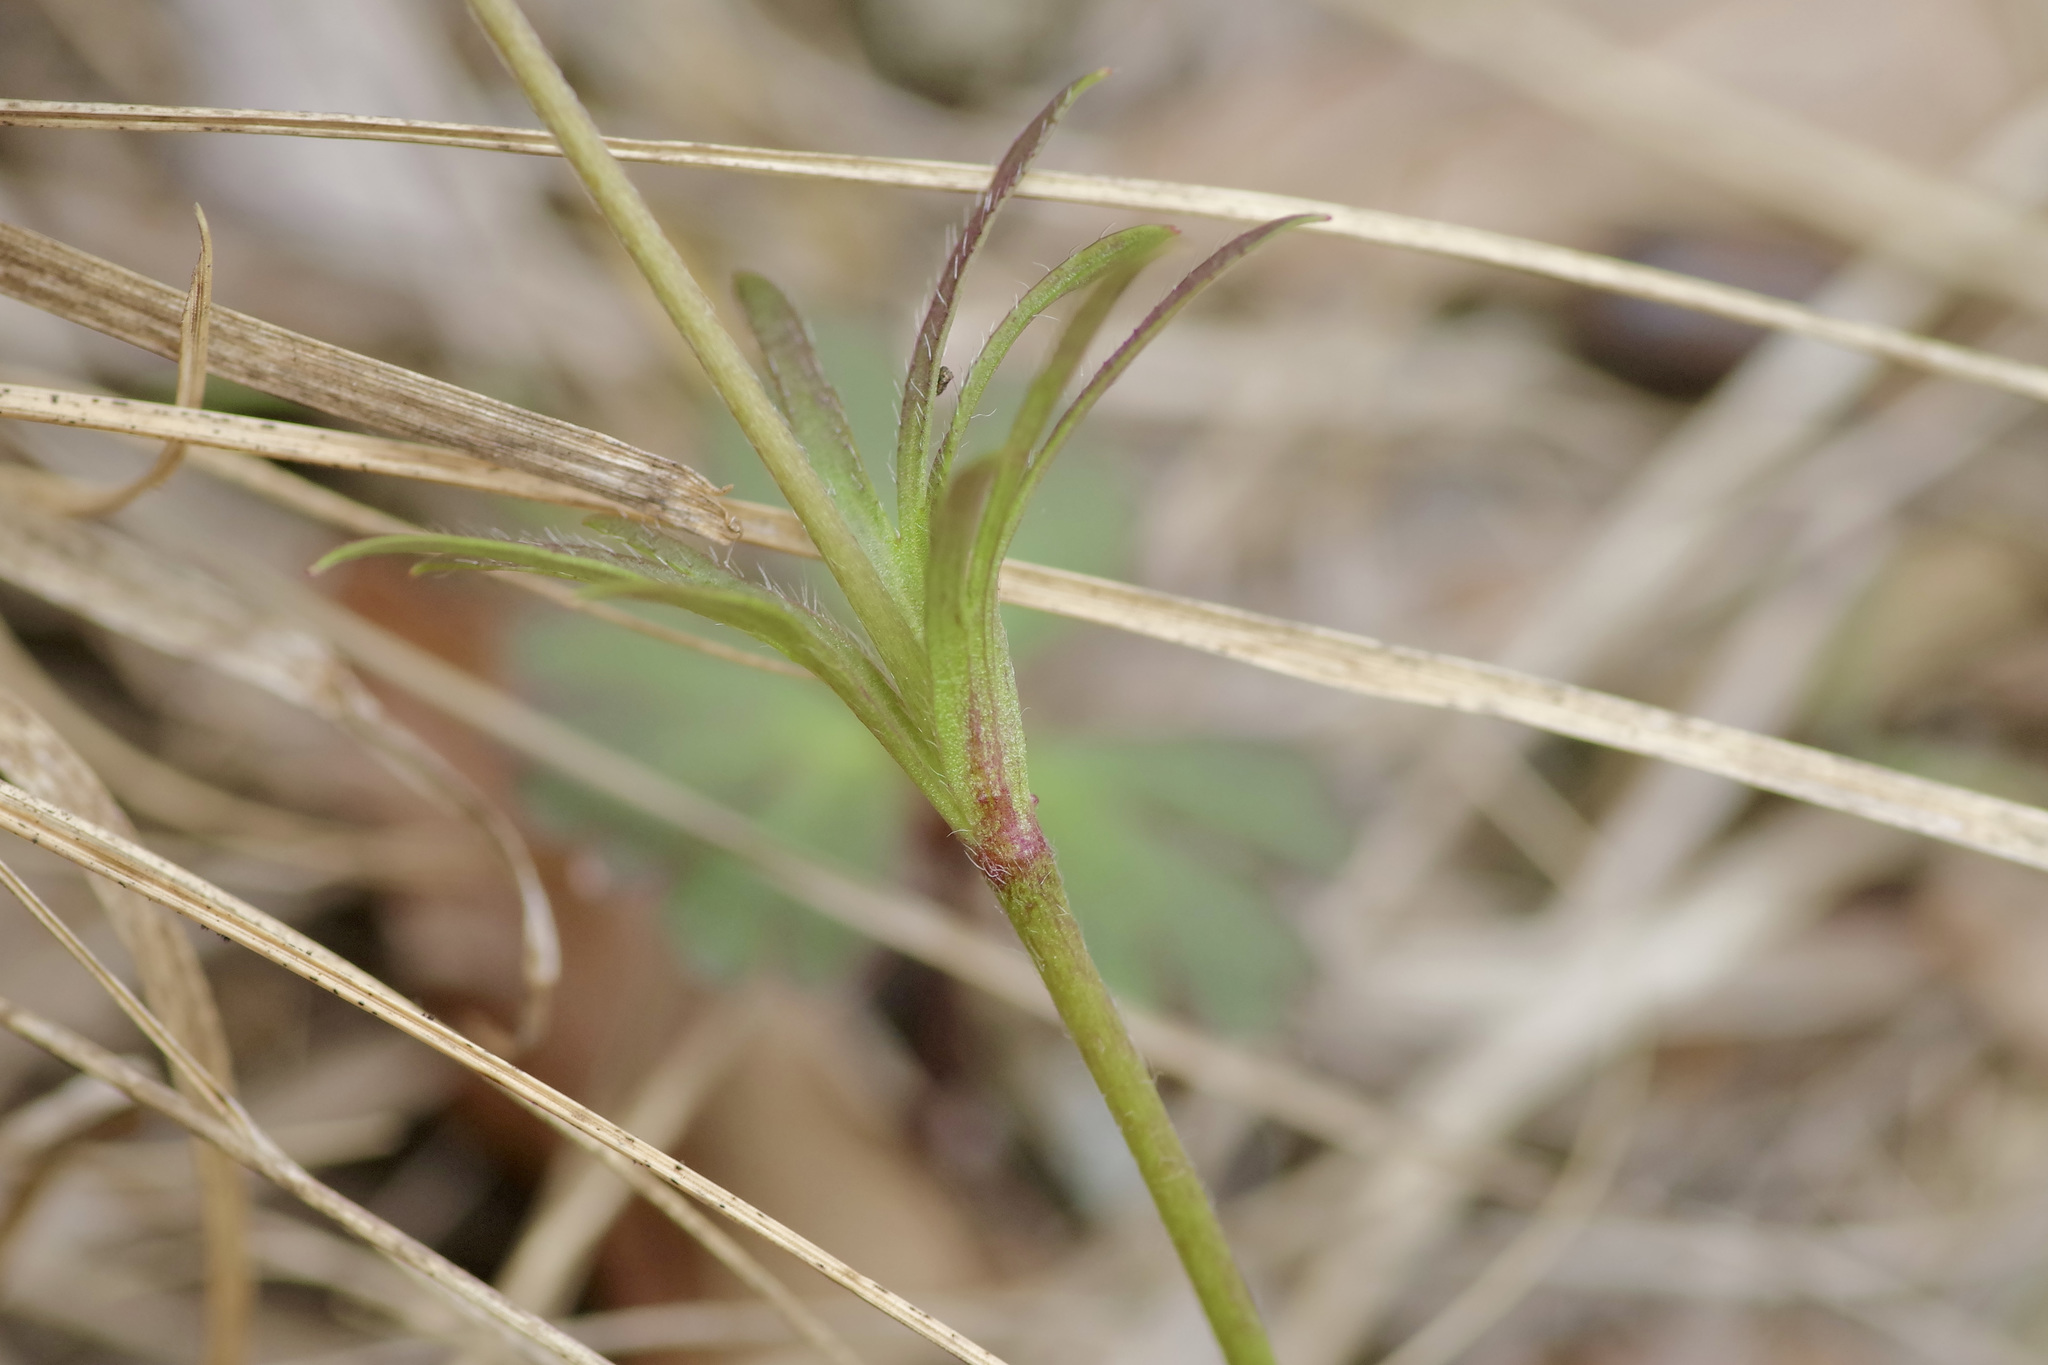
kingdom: Plantae
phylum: Tracheophyta
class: Magnoliopsida
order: Ranunculales
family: Ranunculaceae
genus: Anemone
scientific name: Anemone berlandieri
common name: Ten-petal anemone
